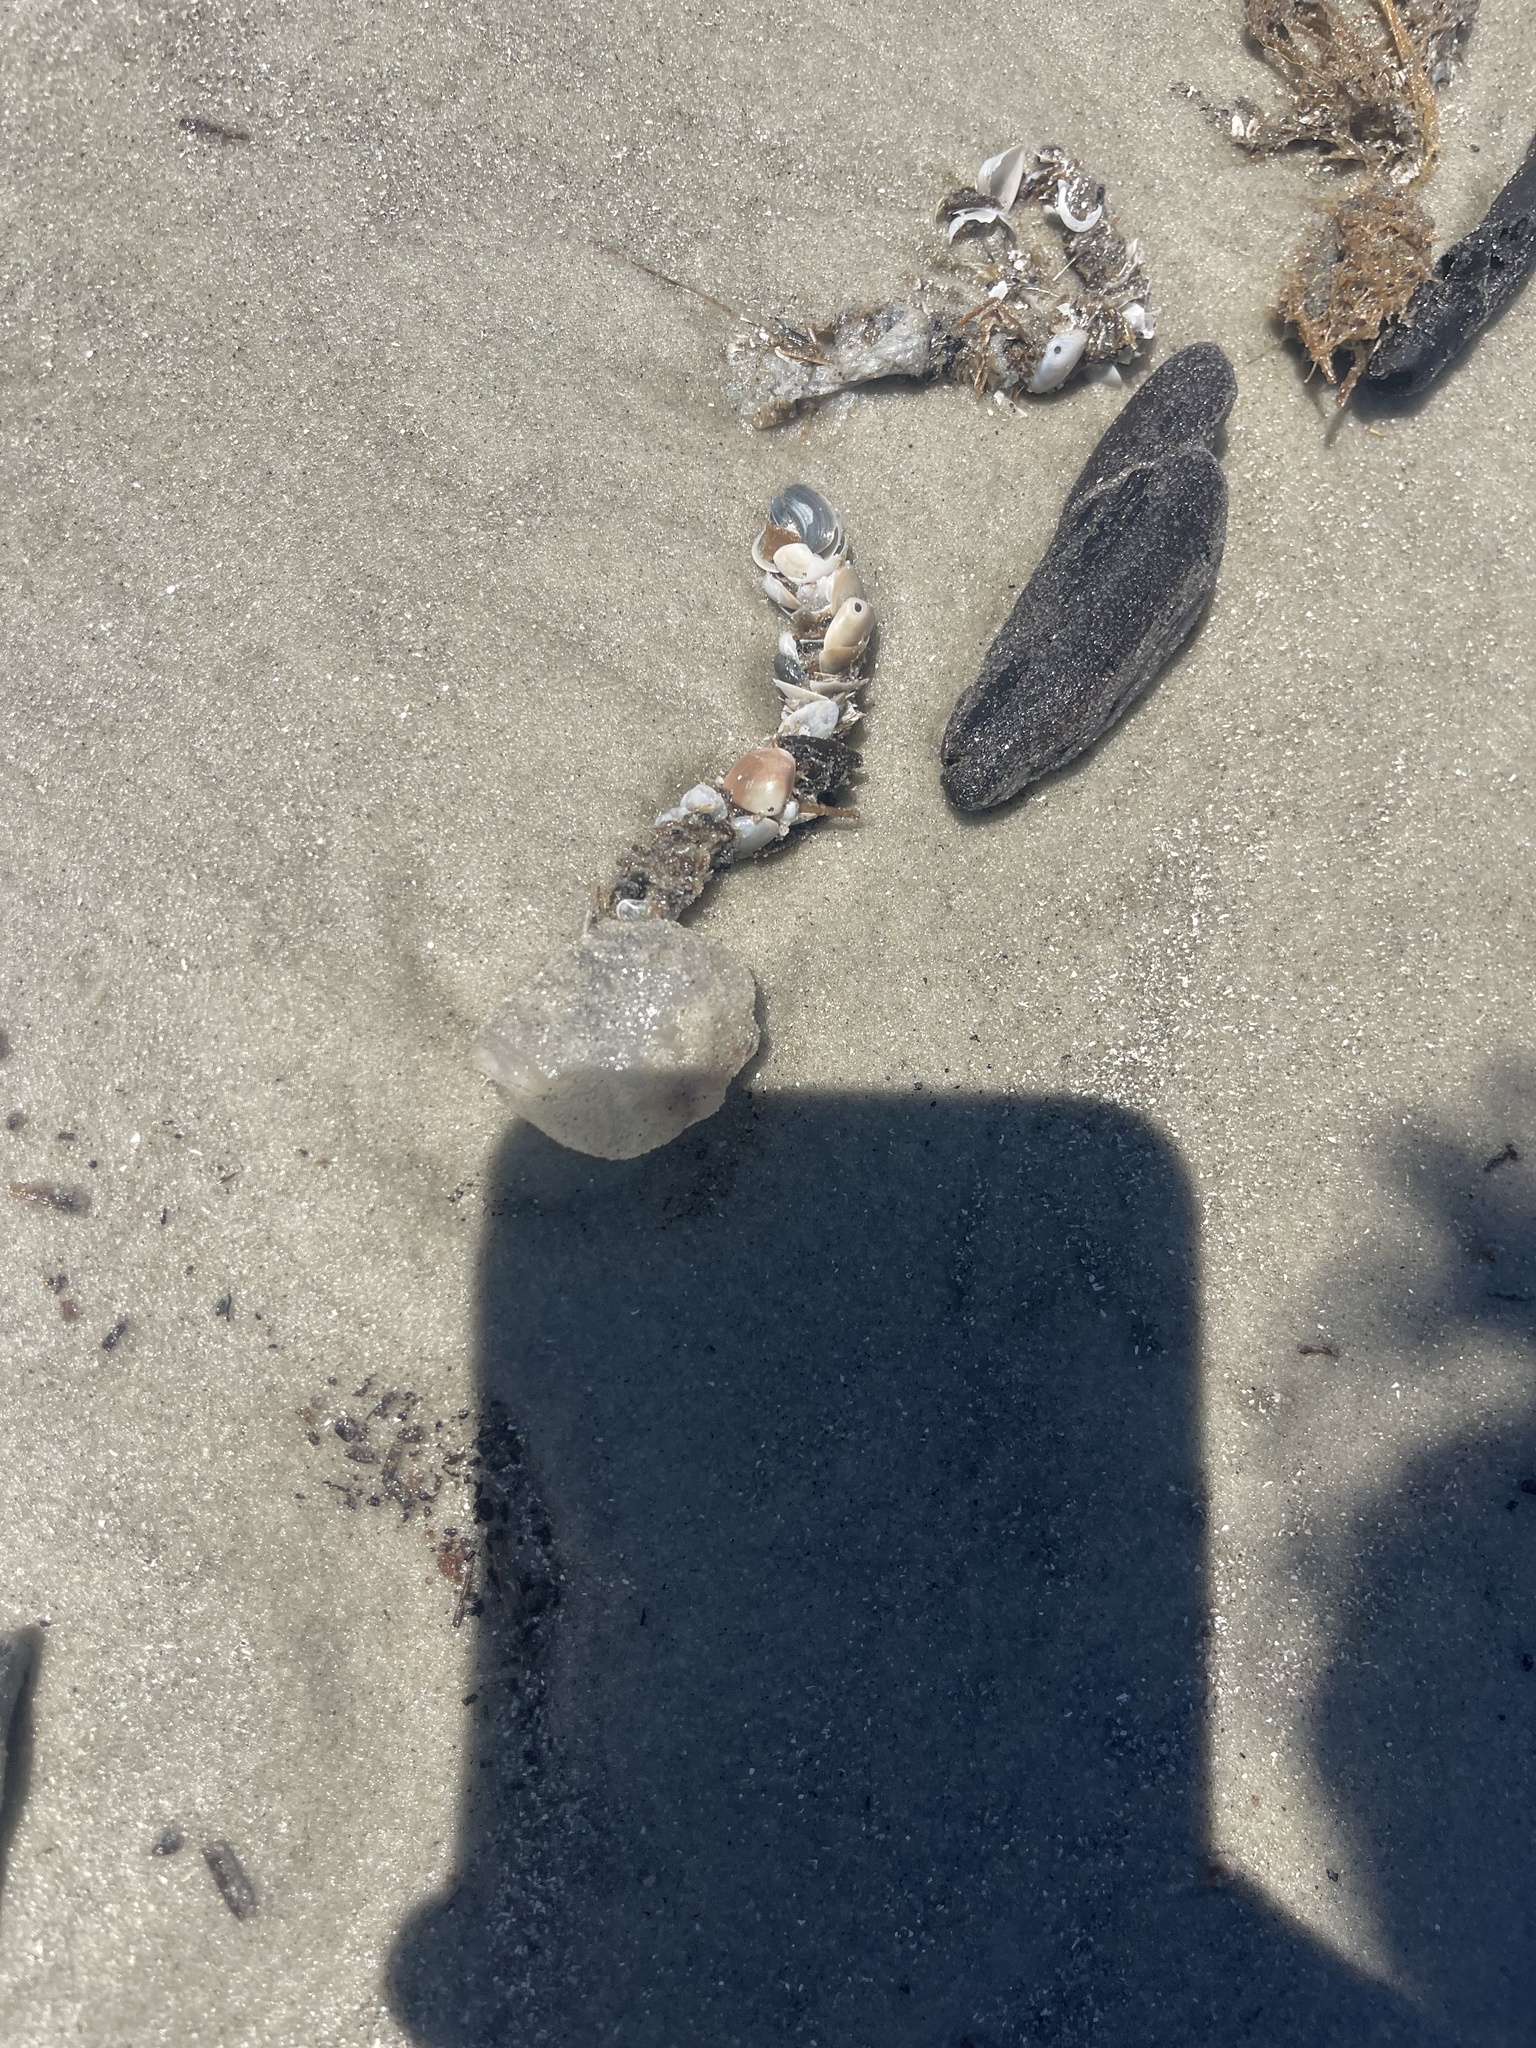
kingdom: Animalia
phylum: Annelida
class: Polychaeta
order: Eunicida
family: Onuphidae
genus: Diopatra
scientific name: Diopatra cuprea
